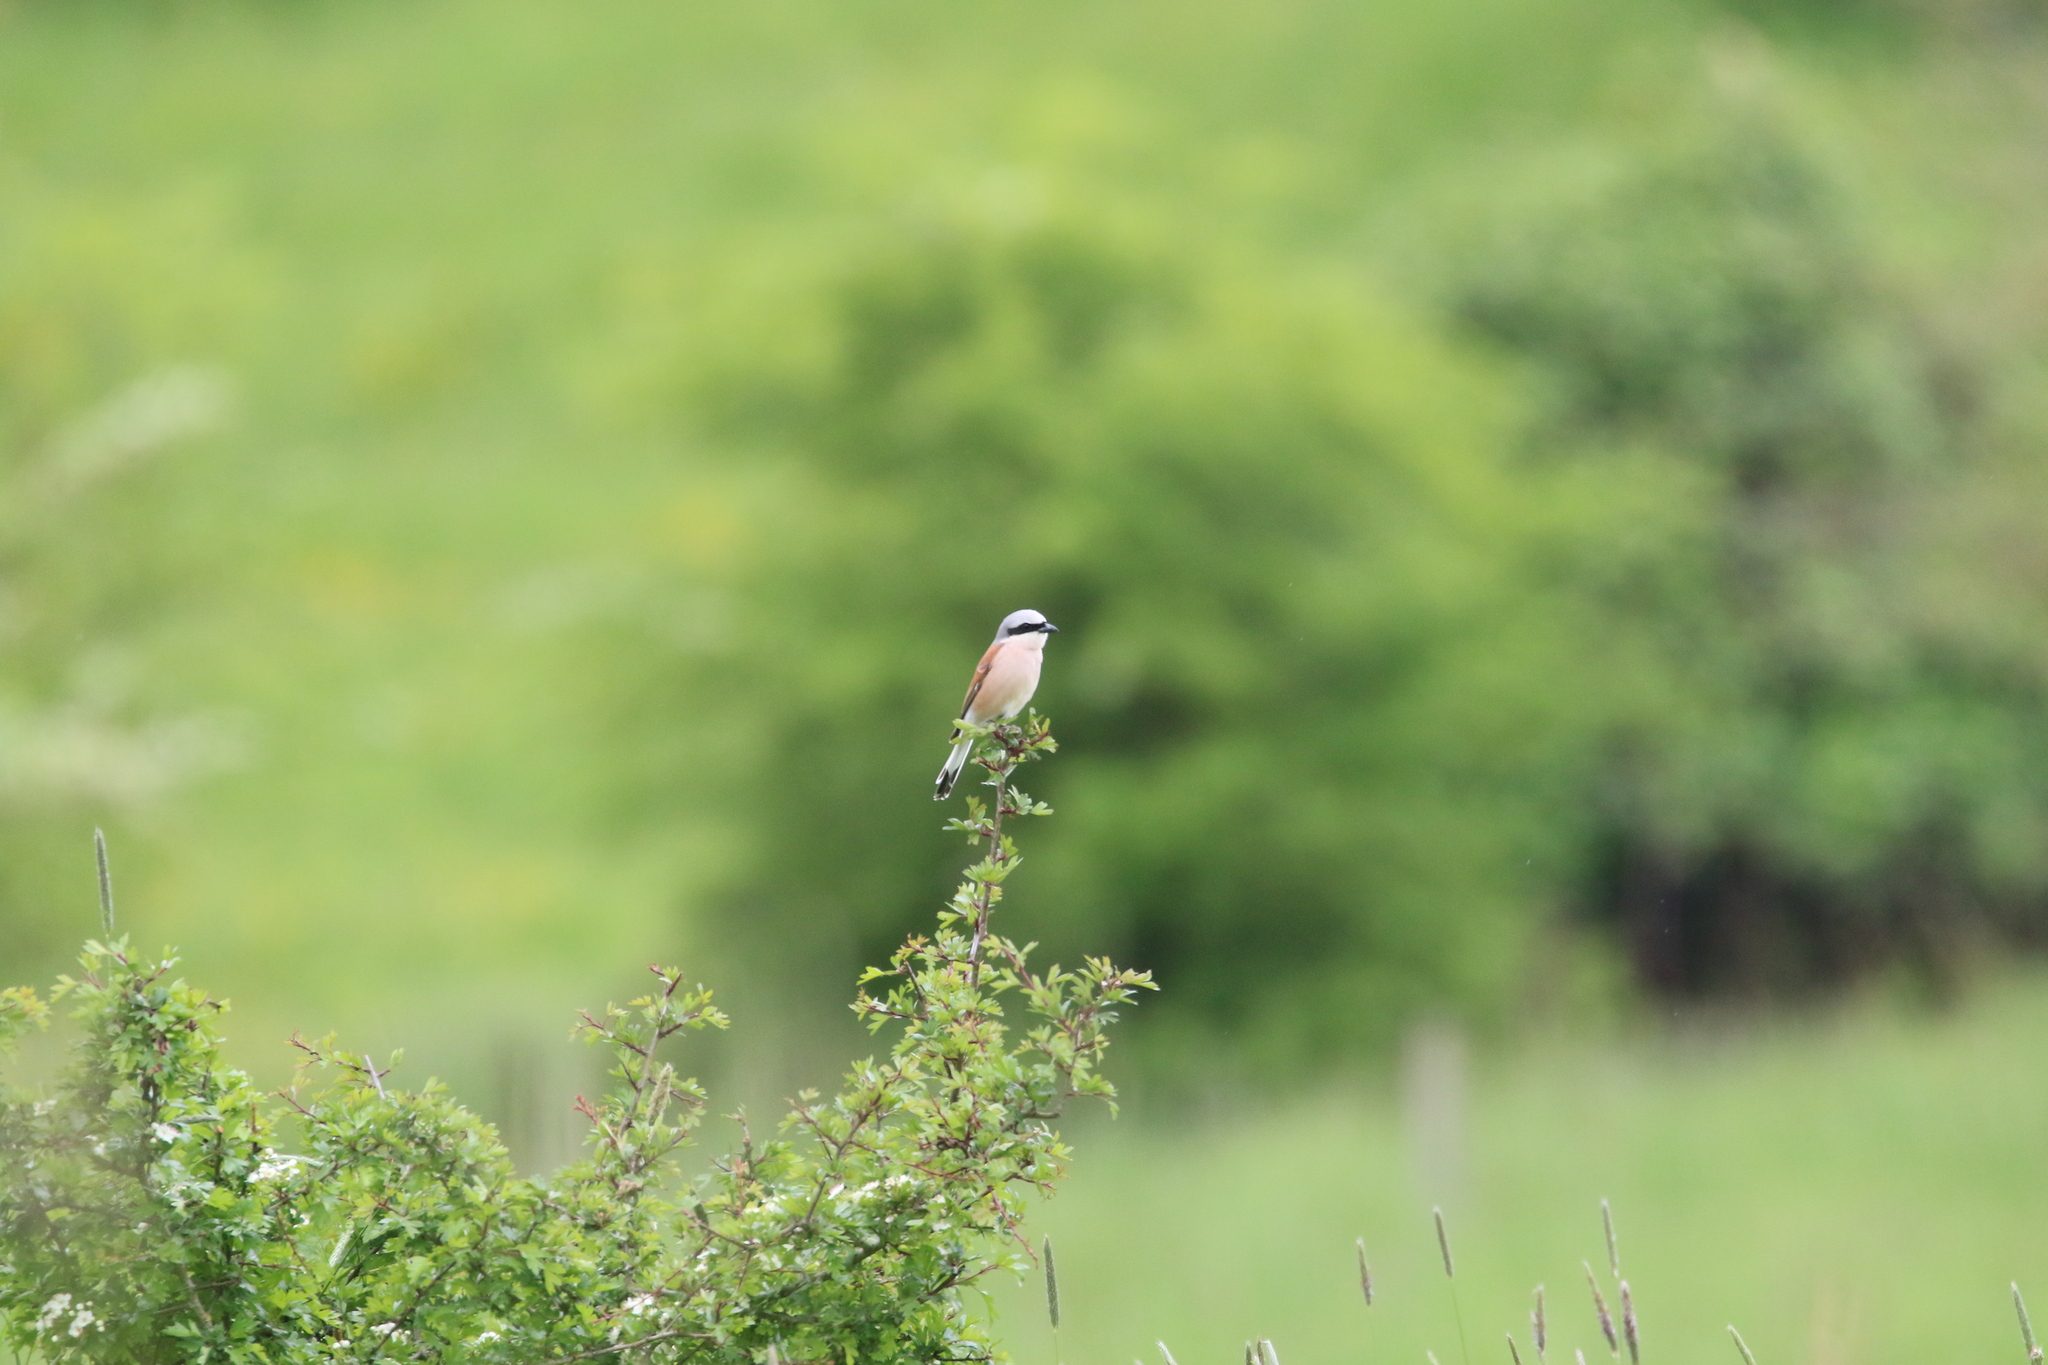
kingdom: Animalia
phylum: Chordata
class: Aves
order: Passeriformes
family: Laniidae
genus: Lanius
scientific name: Lanius collurio
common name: Red-backed shrike
